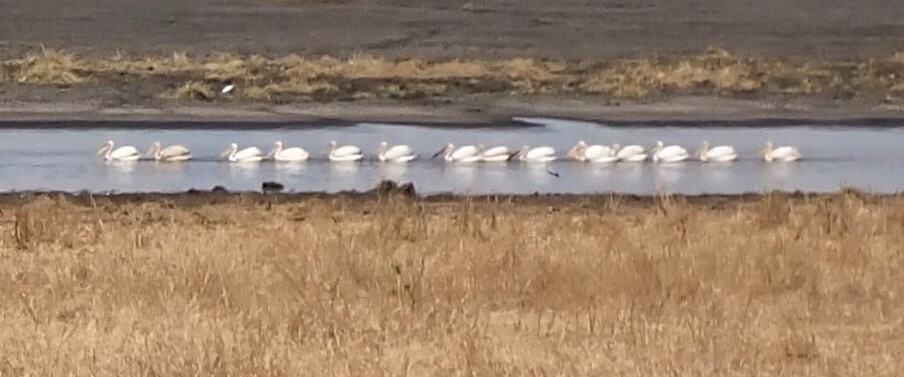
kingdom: Animalia
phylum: Chordata
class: Aves
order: Pelecaniformes
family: Pelecanidae
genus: Pelecanus
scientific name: Pelecanus onocrotalus
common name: Great white pelican
